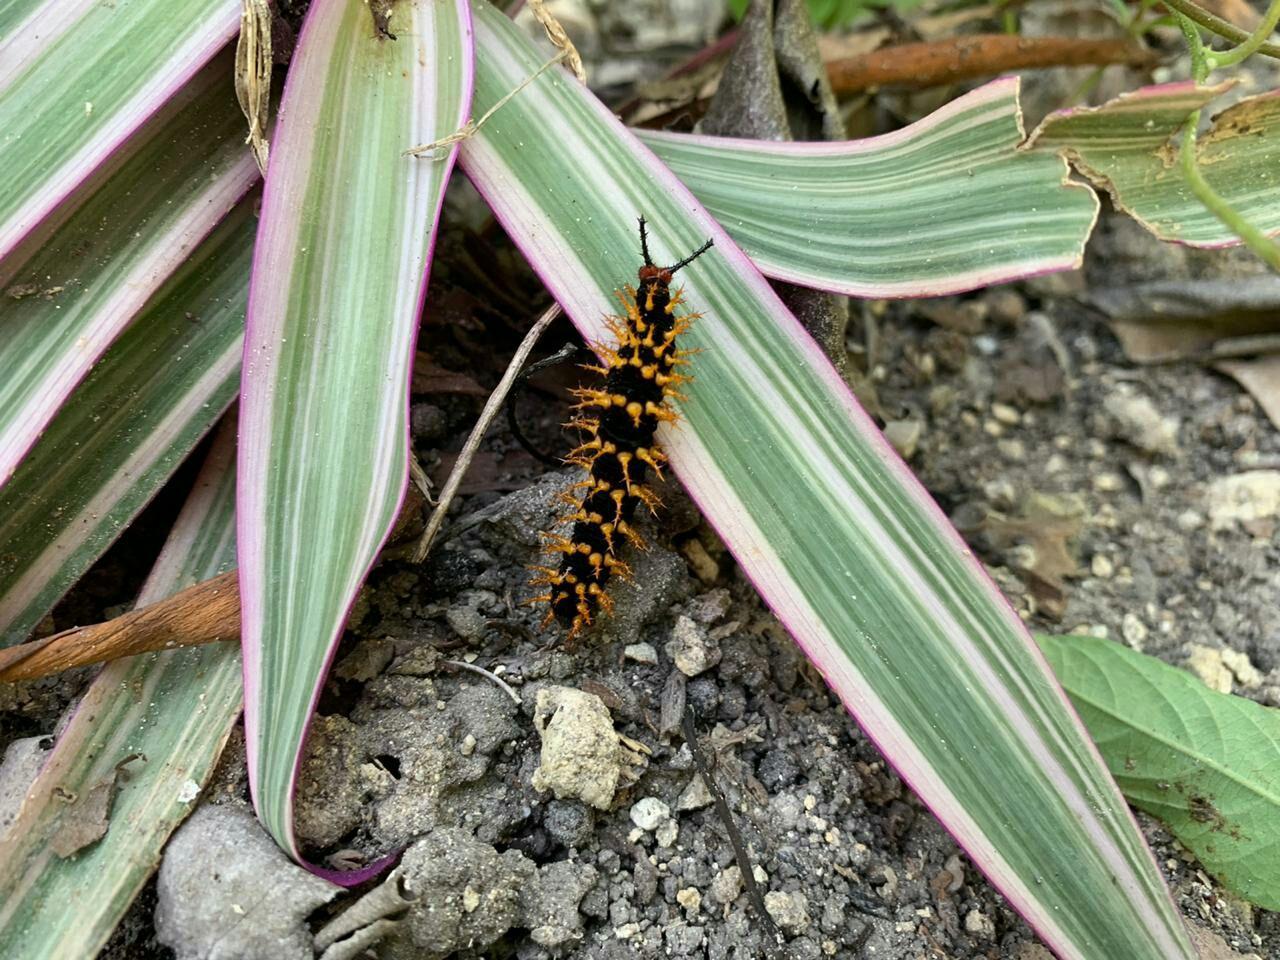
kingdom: Animalia
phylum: Arthropoda
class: Insecta
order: Lepidoptera
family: Nymphalidae
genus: Hypolimnas
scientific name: Hypolimnas anomala
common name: Malayan eggfly
